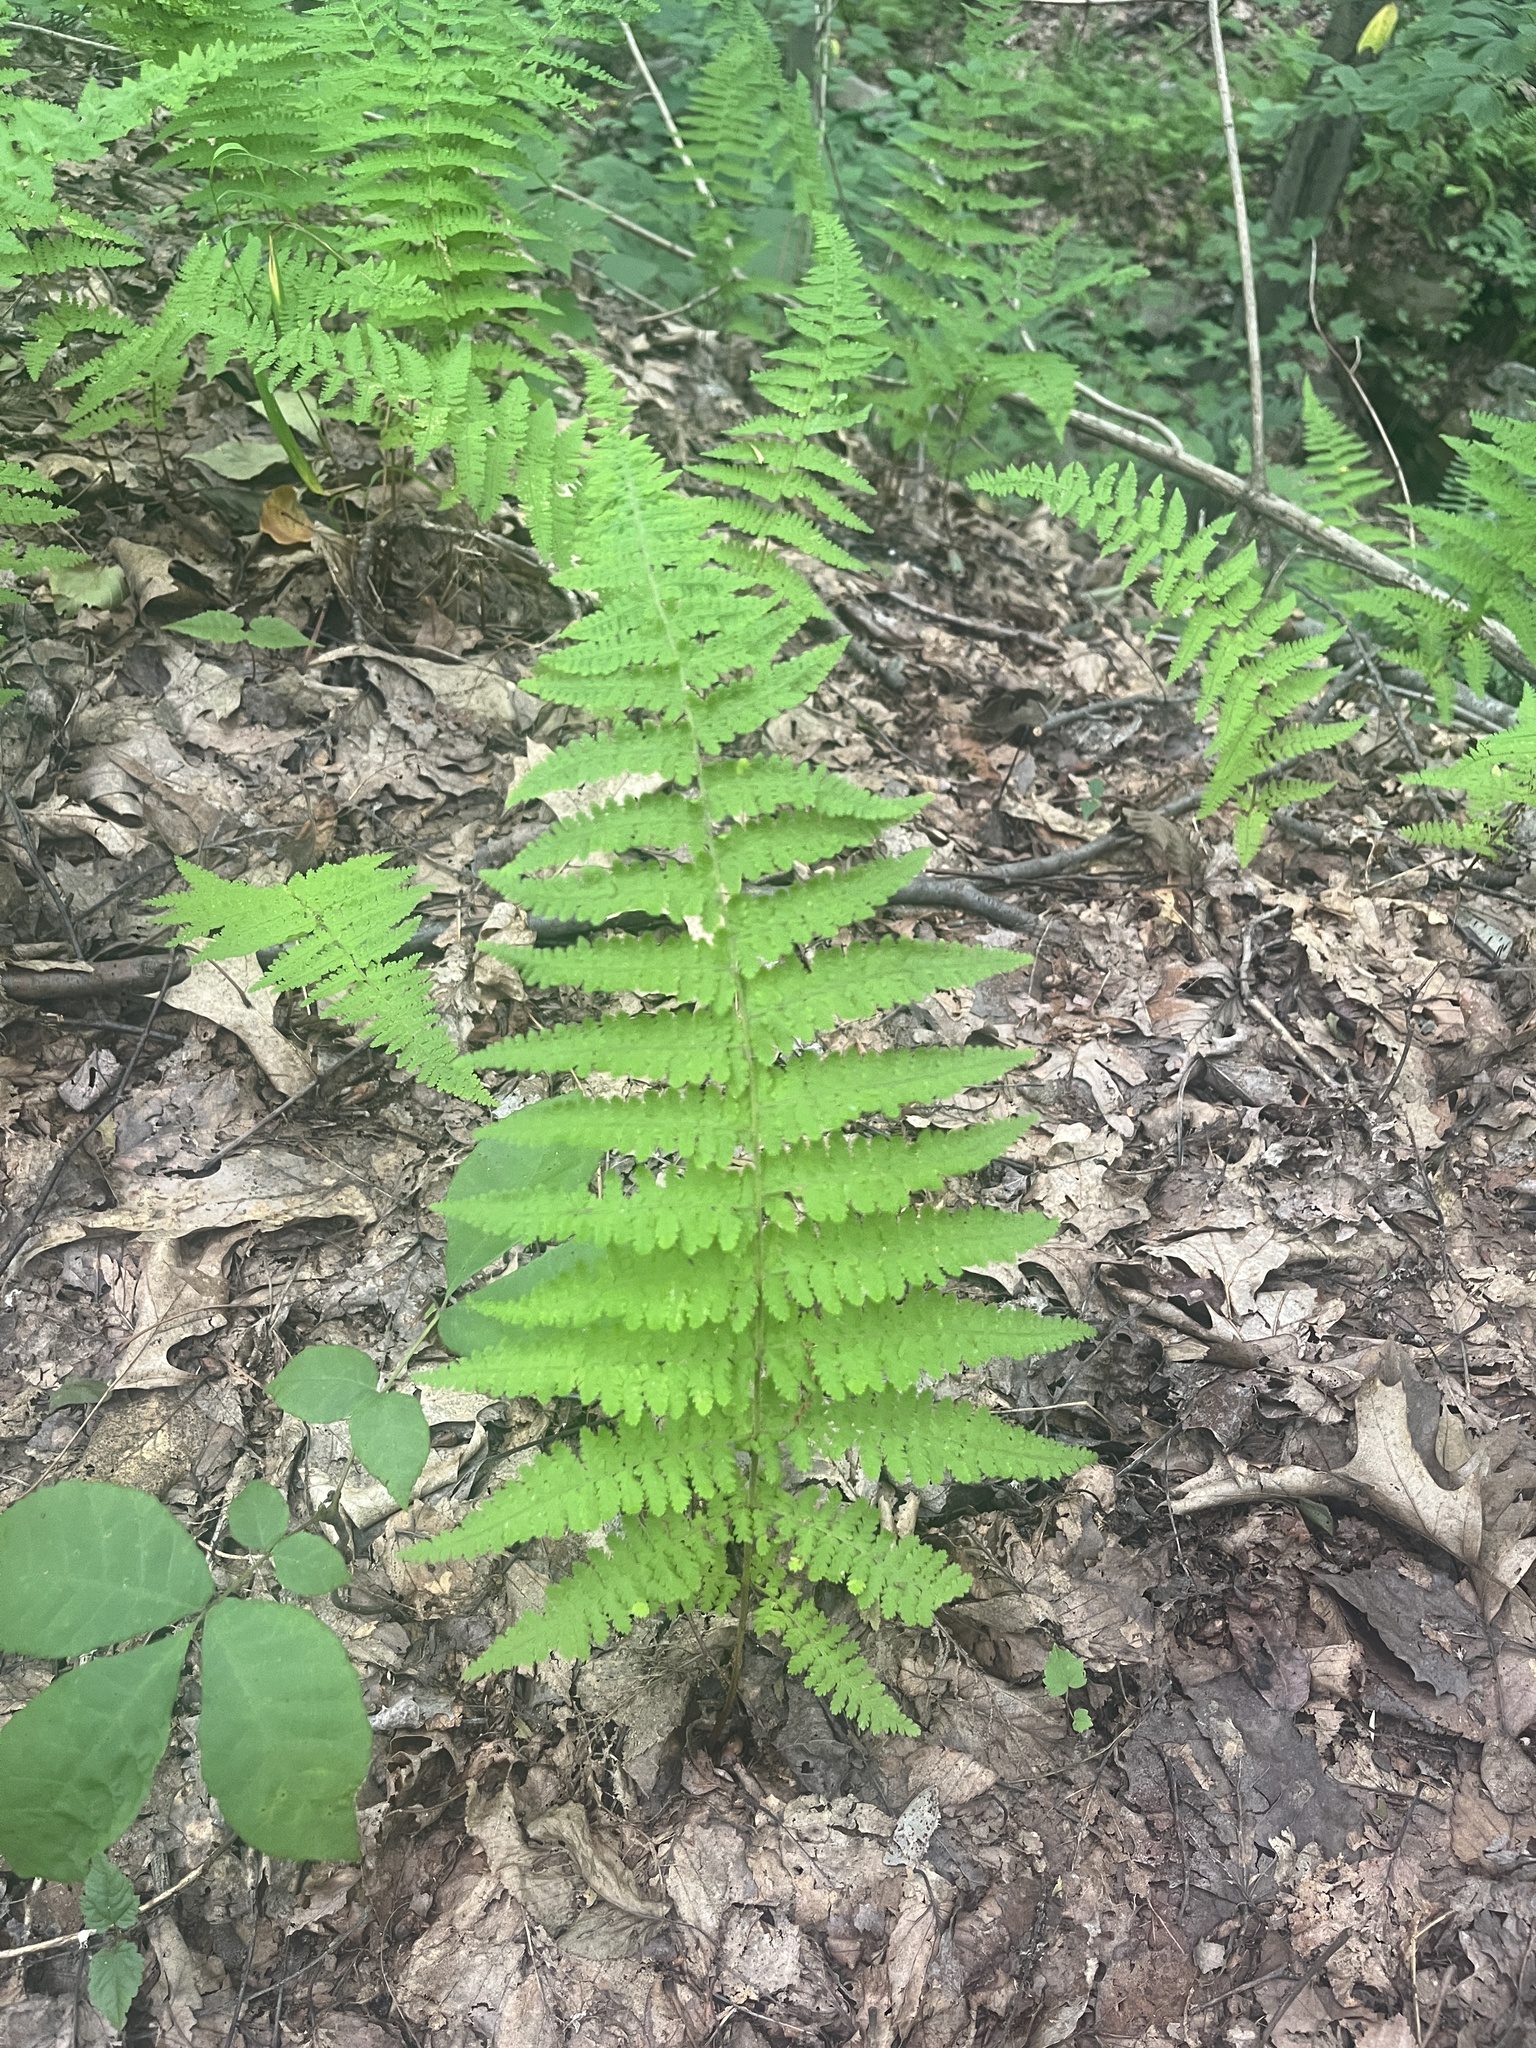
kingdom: Plantae
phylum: Tracheophyta
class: Polypodiopsida
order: Polypodiales
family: Dennstaedtiaceae
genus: Sitobolium
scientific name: Sitobolium punctilobum
